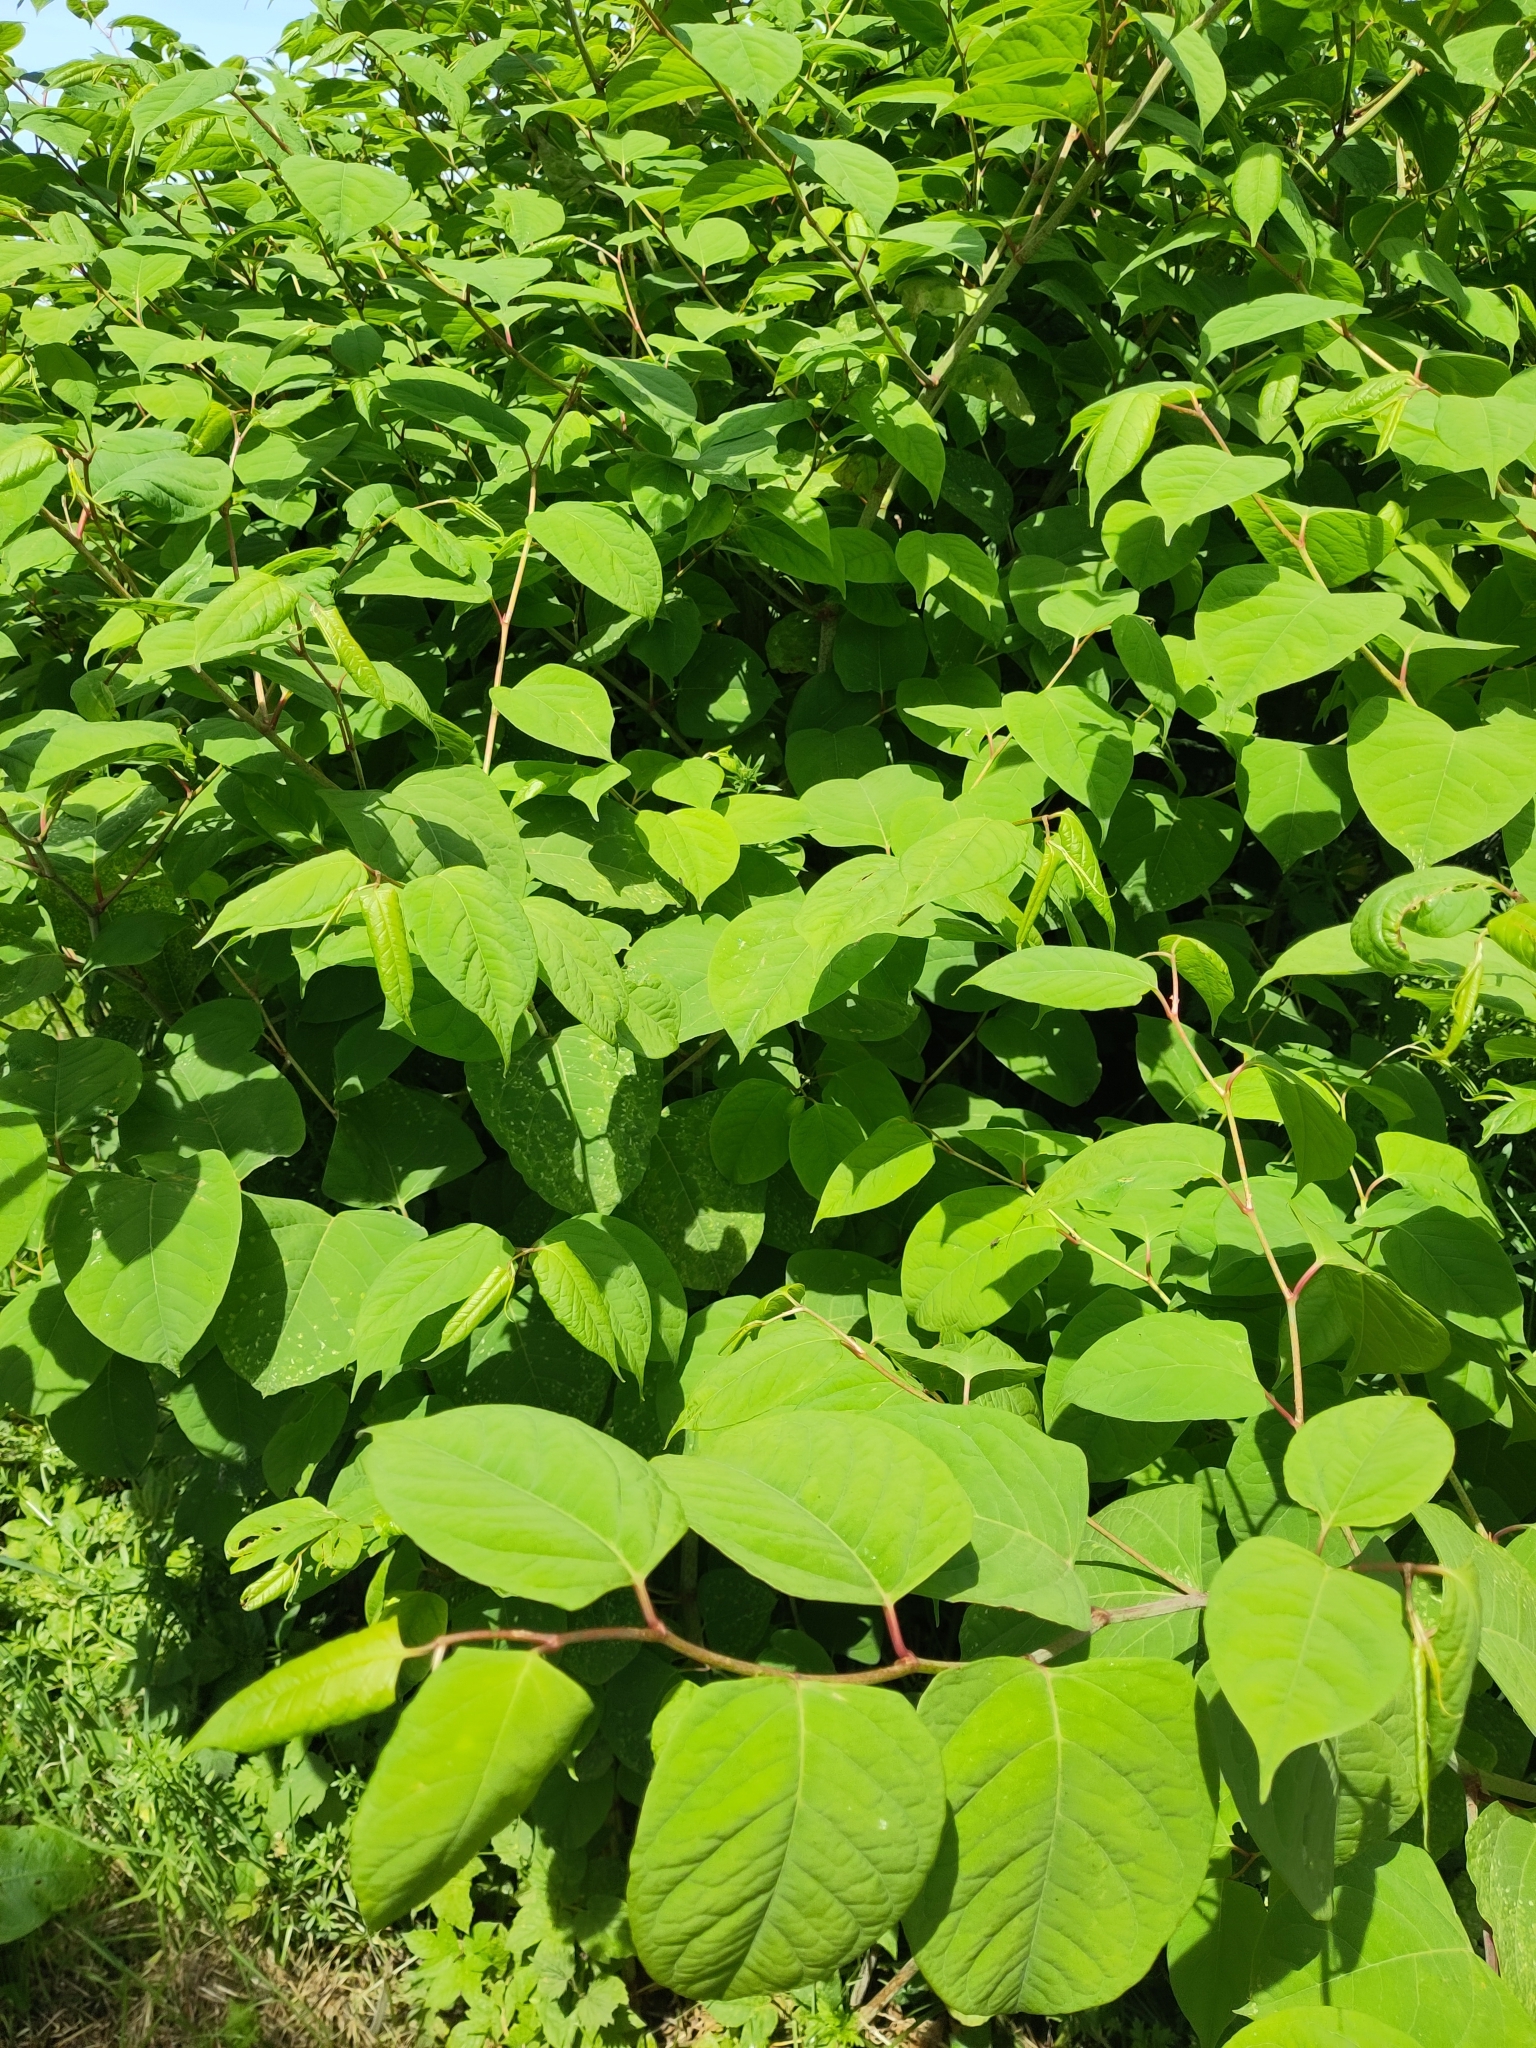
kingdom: Plantae
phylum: Tracheophyta
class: Magnoliopsida
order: Caryophyllales
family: Polygonaceae
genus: Reynoutria
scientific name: Reynoutria japonica
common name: Japanese knotweed
